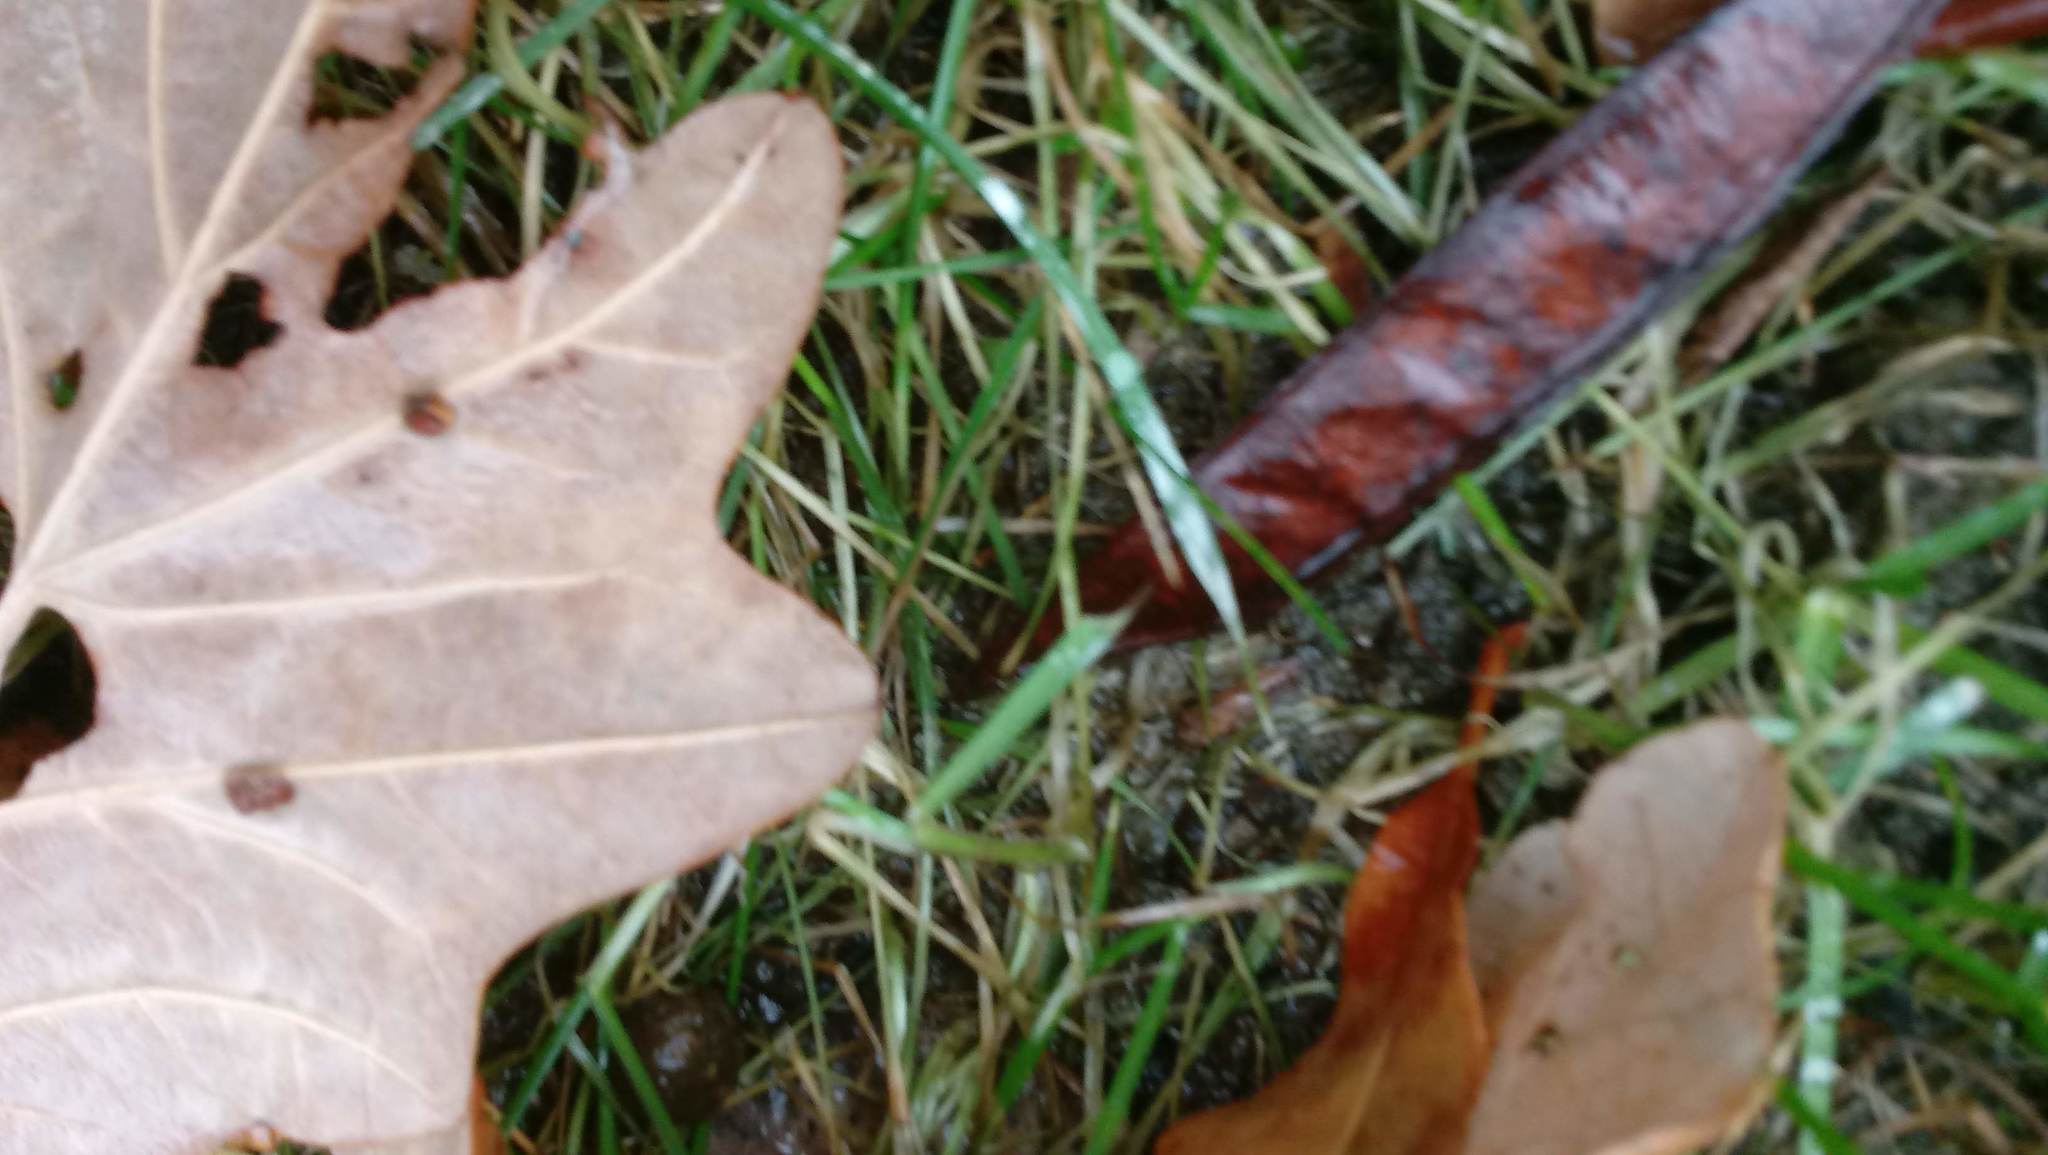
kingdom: Animalia
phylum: Arthropoda
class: Insecta
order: Hymenoptera
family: Cynipidae
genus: Andricus
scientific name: Andricus Druon ignotum
